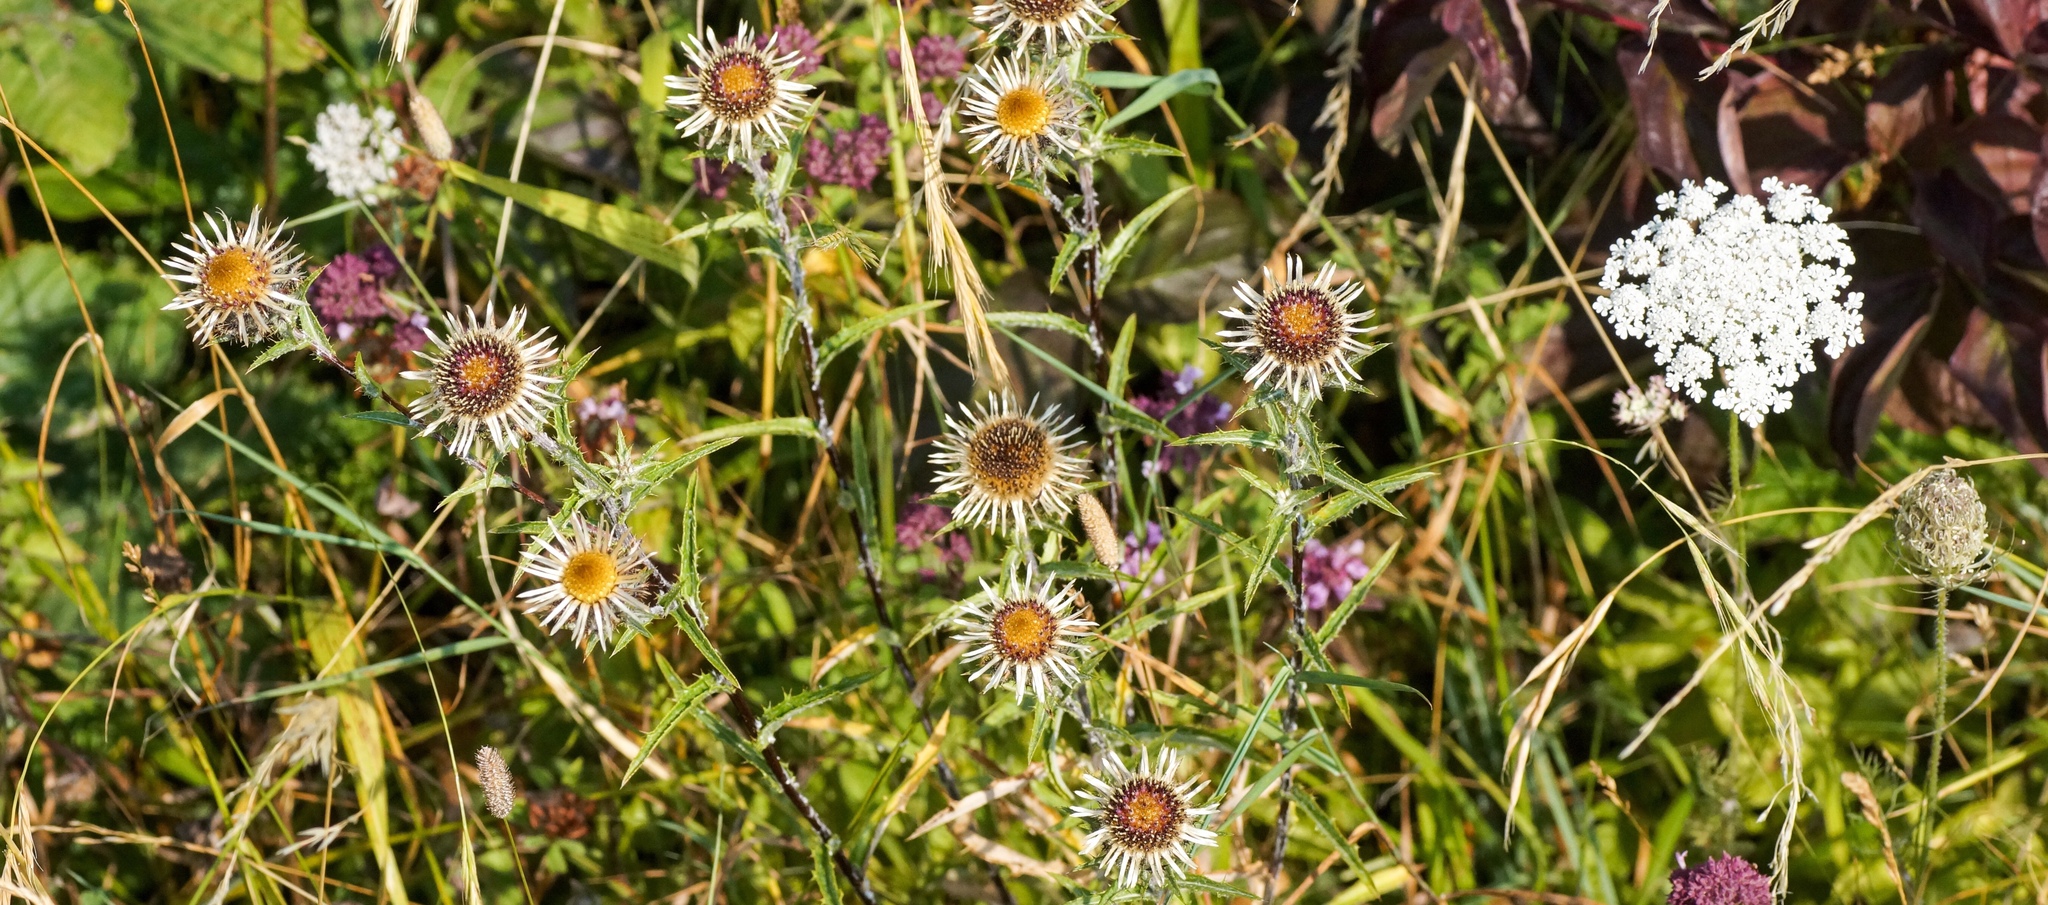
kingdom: Plantae
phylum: Tracheophyta
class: Magnoliopsida
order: Asterales
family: Asteraceae
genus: Carlina
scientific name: Carlina vulgaris
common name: Carline thistle
